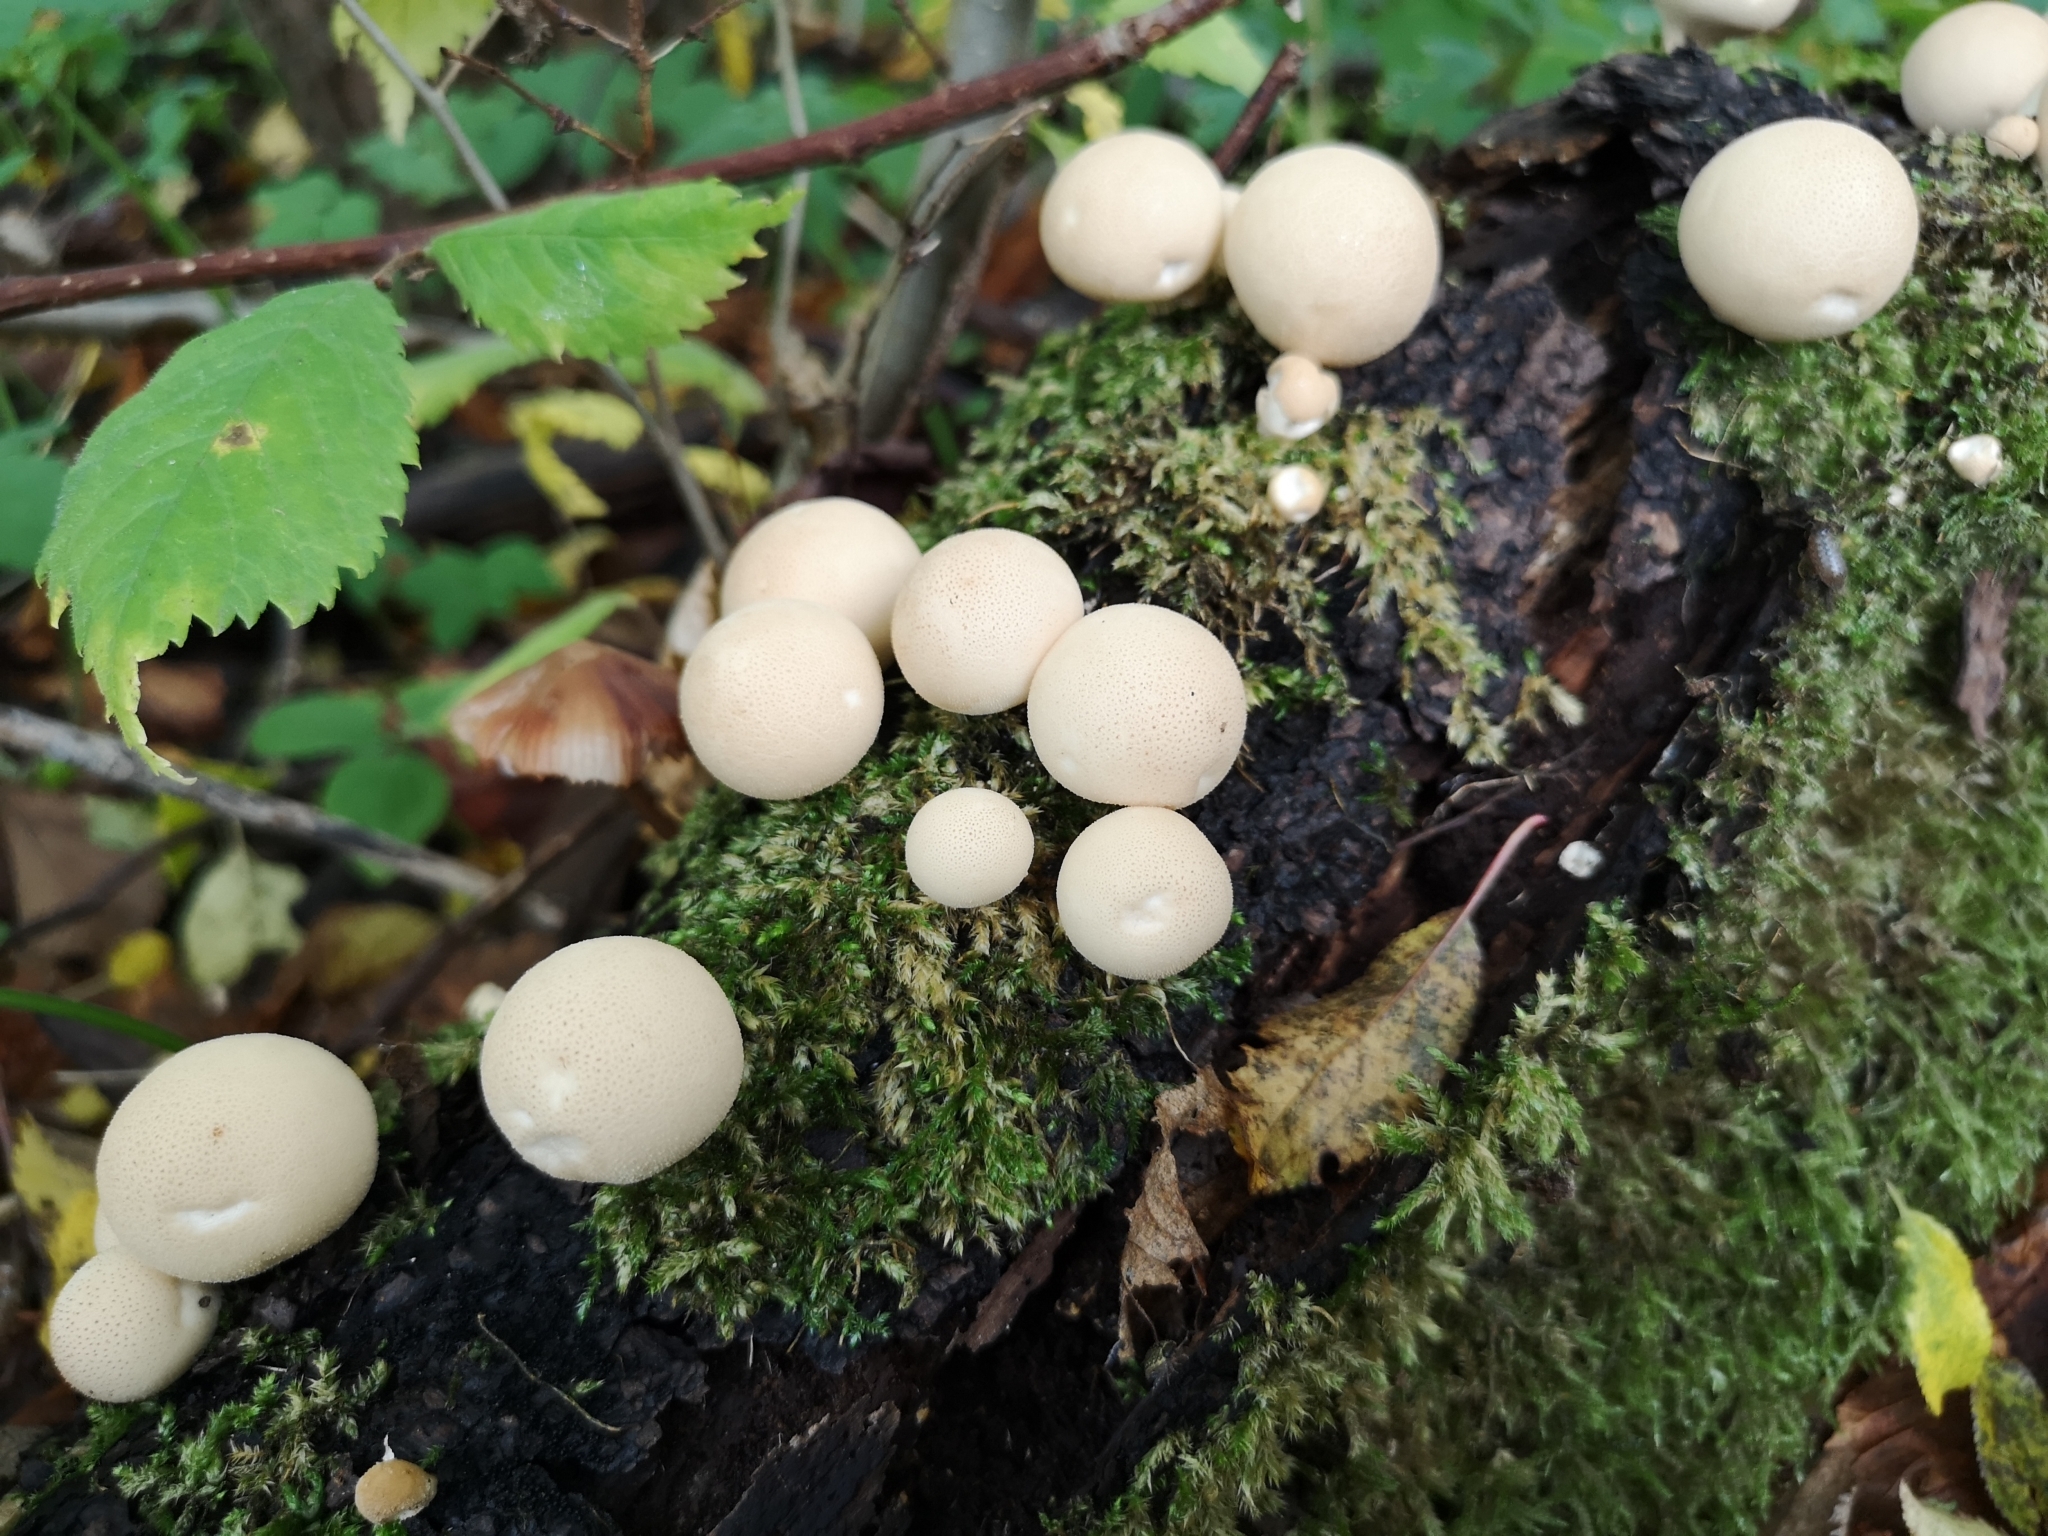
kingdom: Fungi
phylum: Basidiomycota
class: Agaricomycetes
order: Agaricales
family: Lycoperdaceae
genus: Apioperdon
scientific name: Apioperdon pyriforme
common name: Pear-shaped puffball
